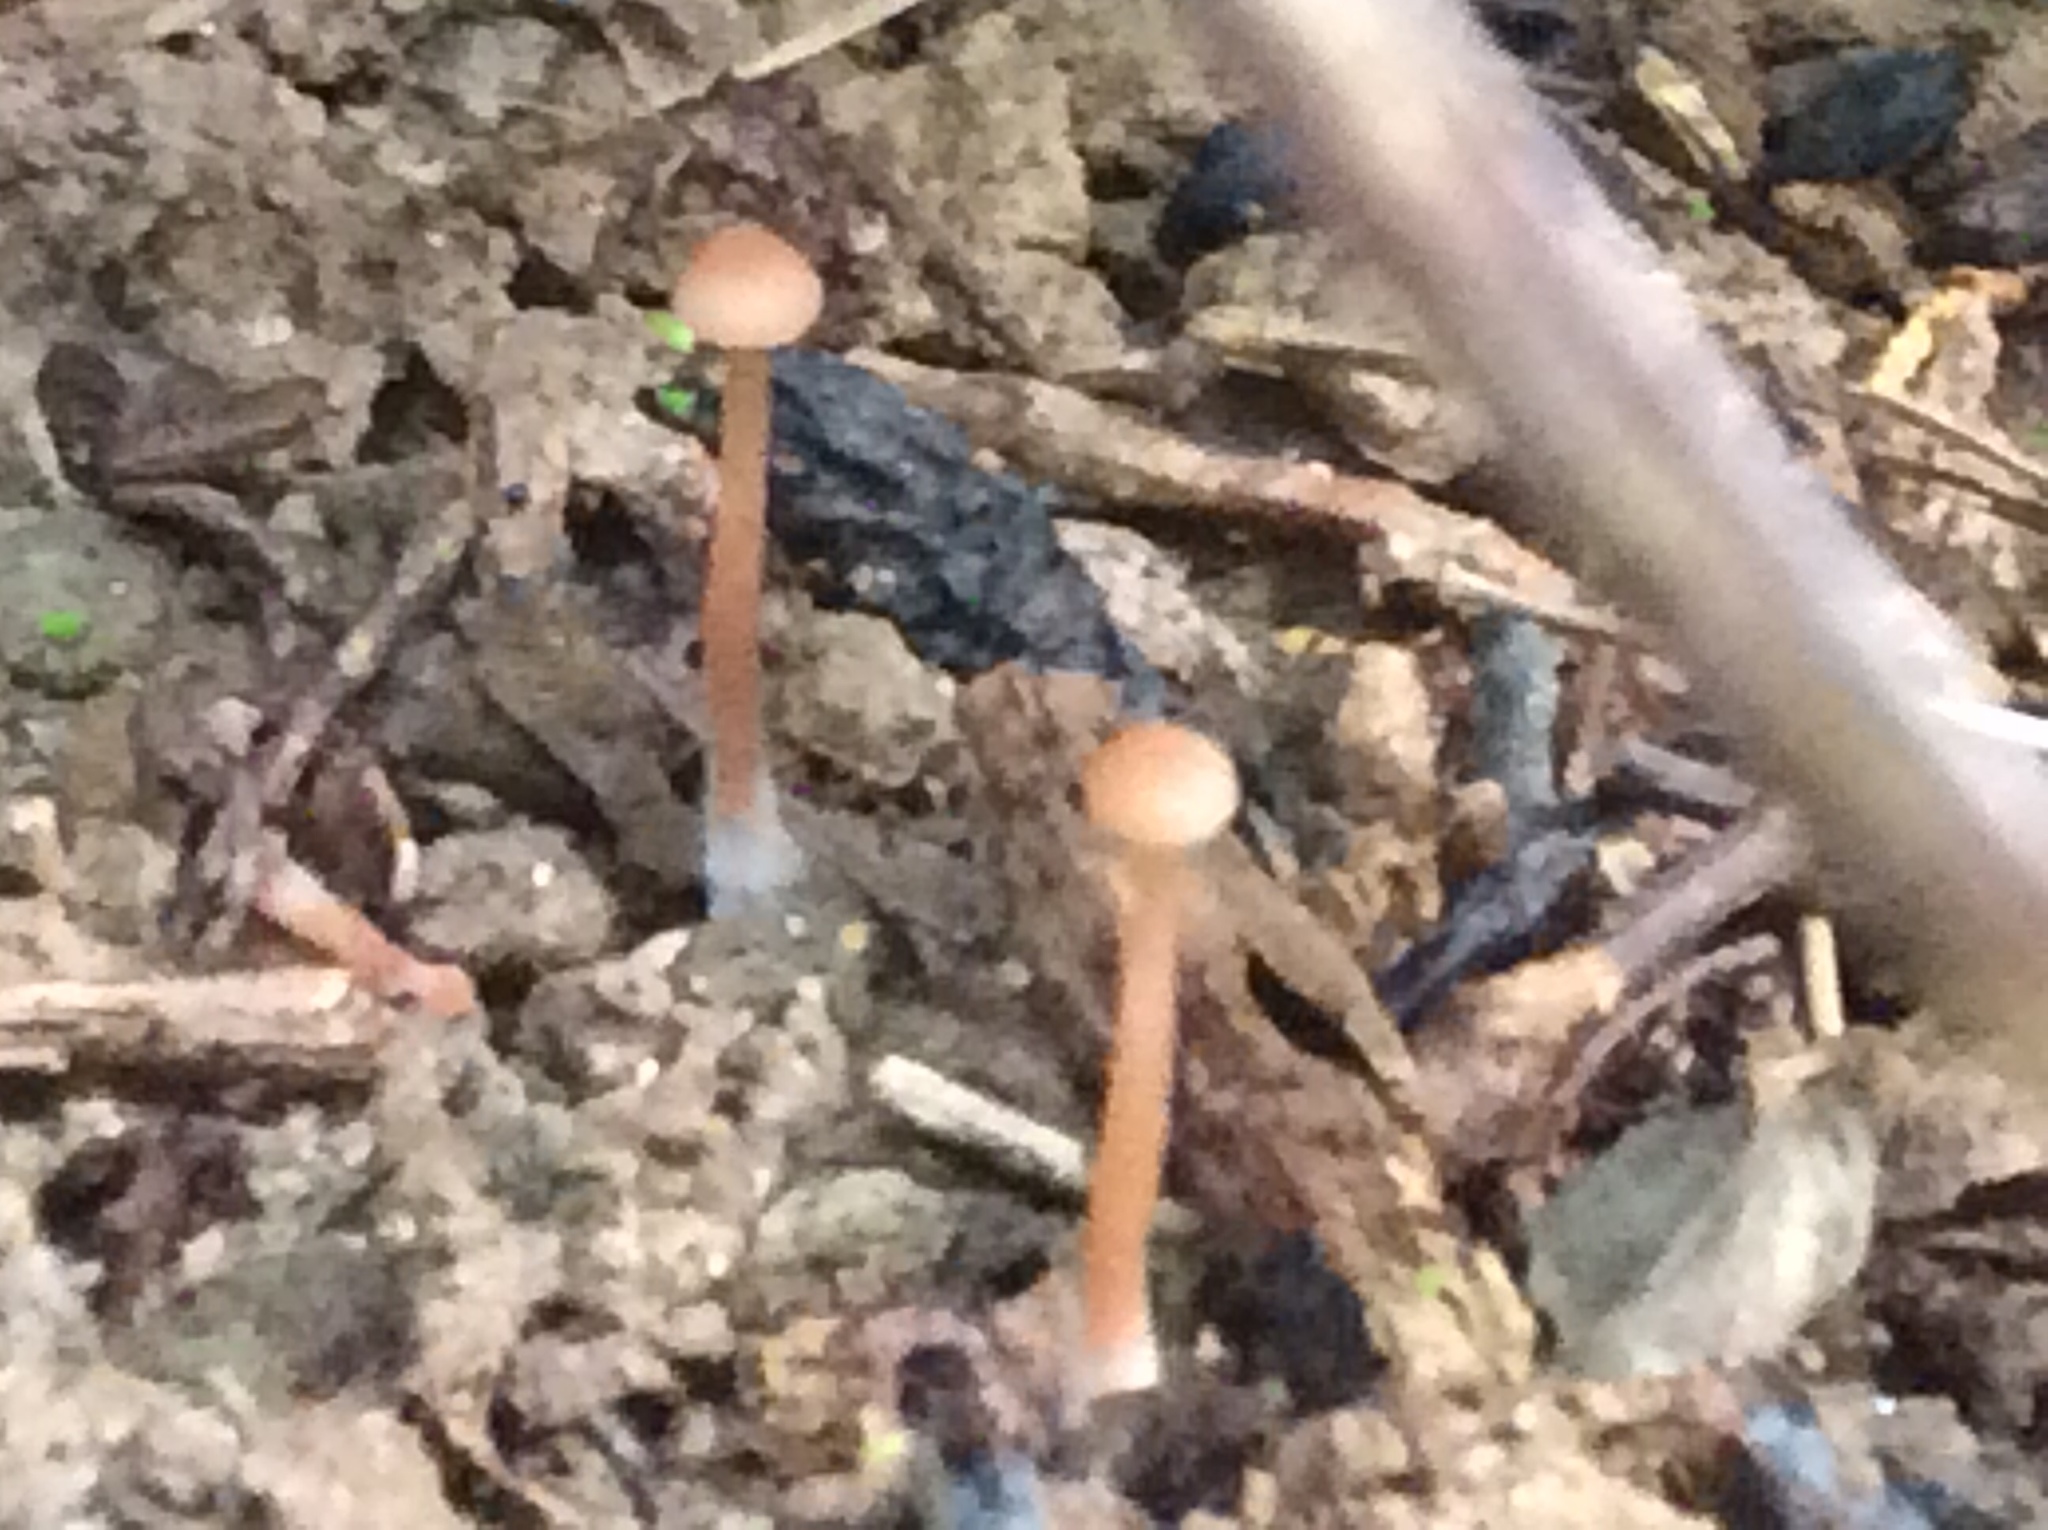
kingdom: Fungi
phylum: Basidiomycota
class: Agaricomycetes
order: Agaricales
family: Hydnangiaceae
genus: Laccaria
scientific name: Laccaria laccata
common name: Deceiver
